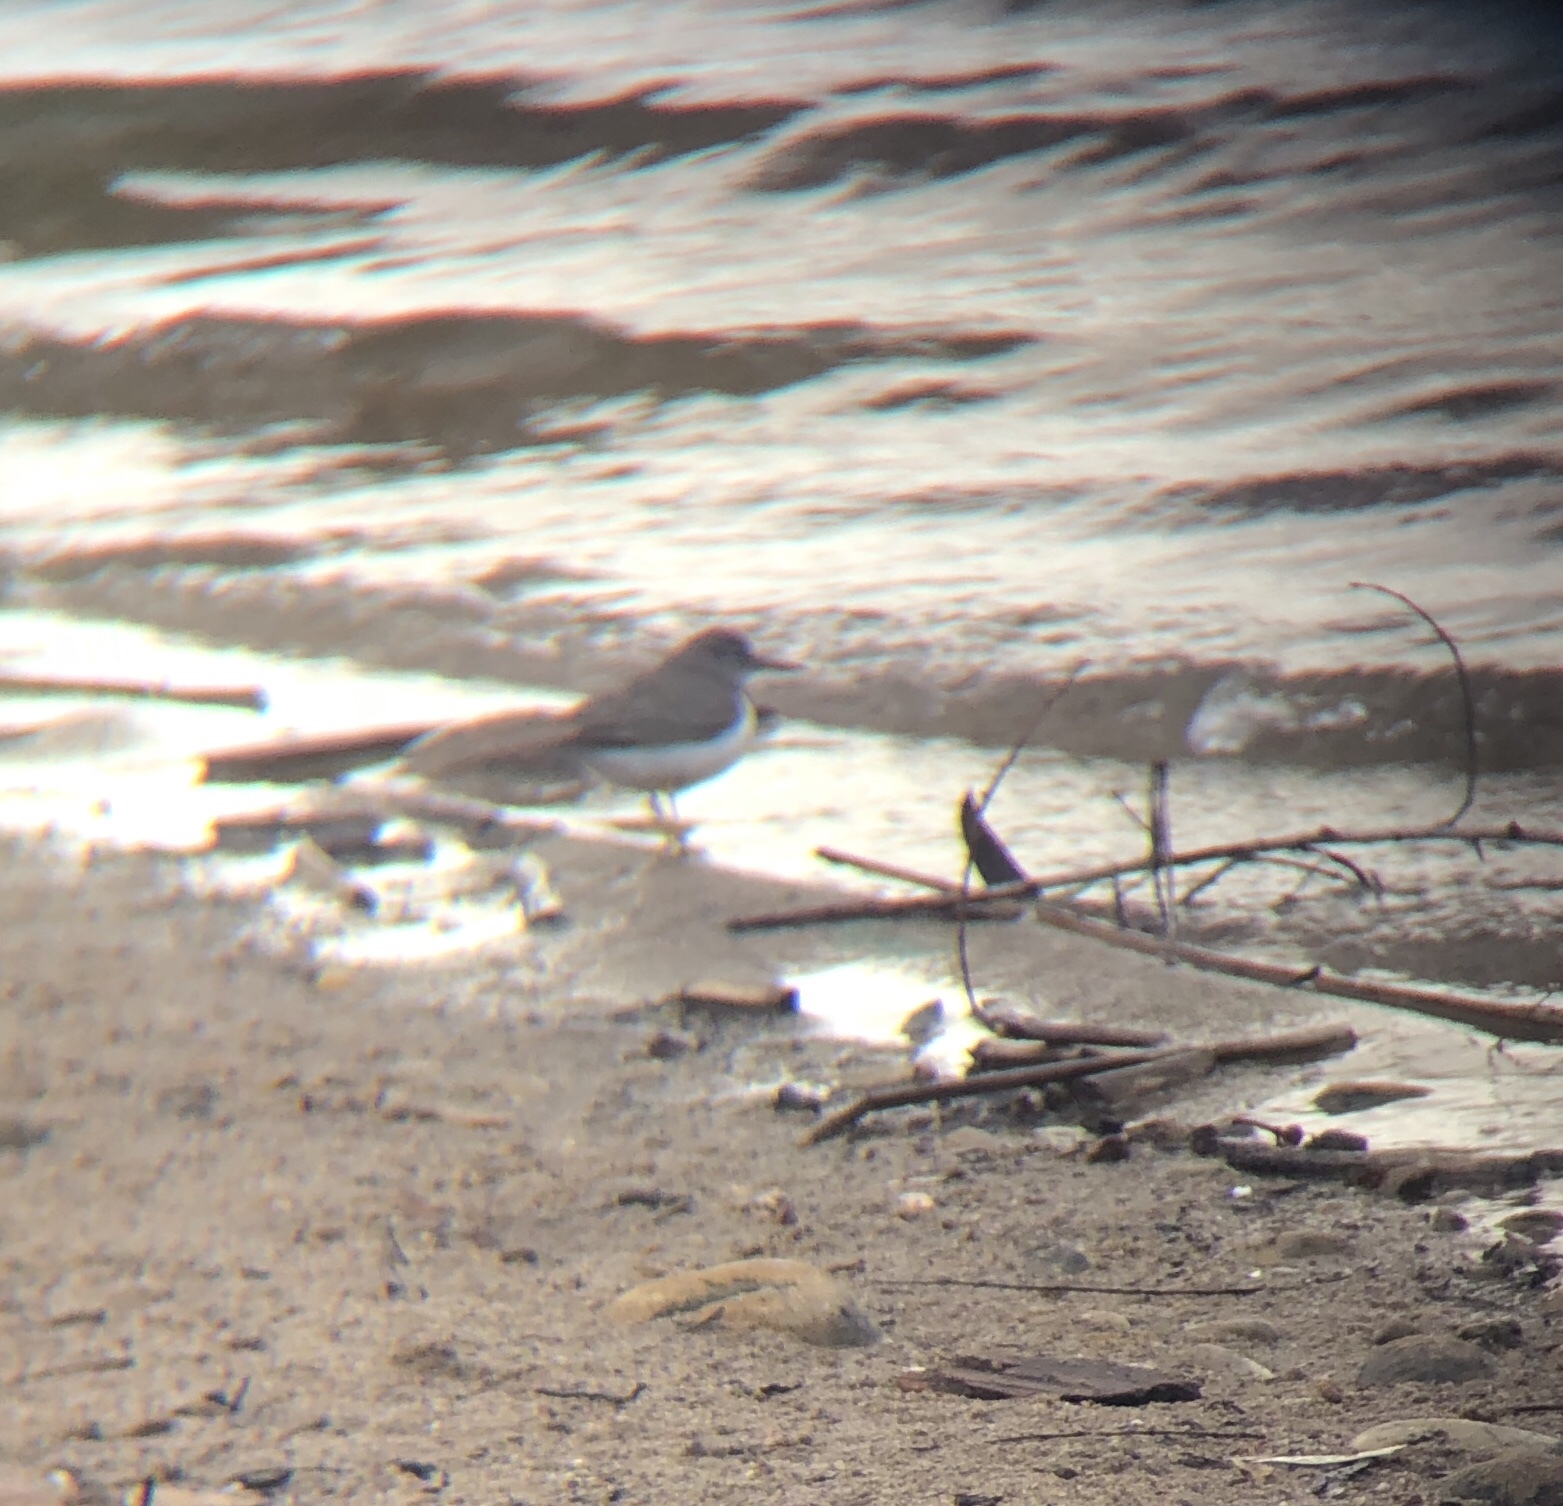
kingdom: Animalia
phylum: Chordata
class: Aves
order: Charadriiformes
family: Scolopacidae
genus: Actitis
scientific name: Actitis macularius
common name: Spotted sandpiper
